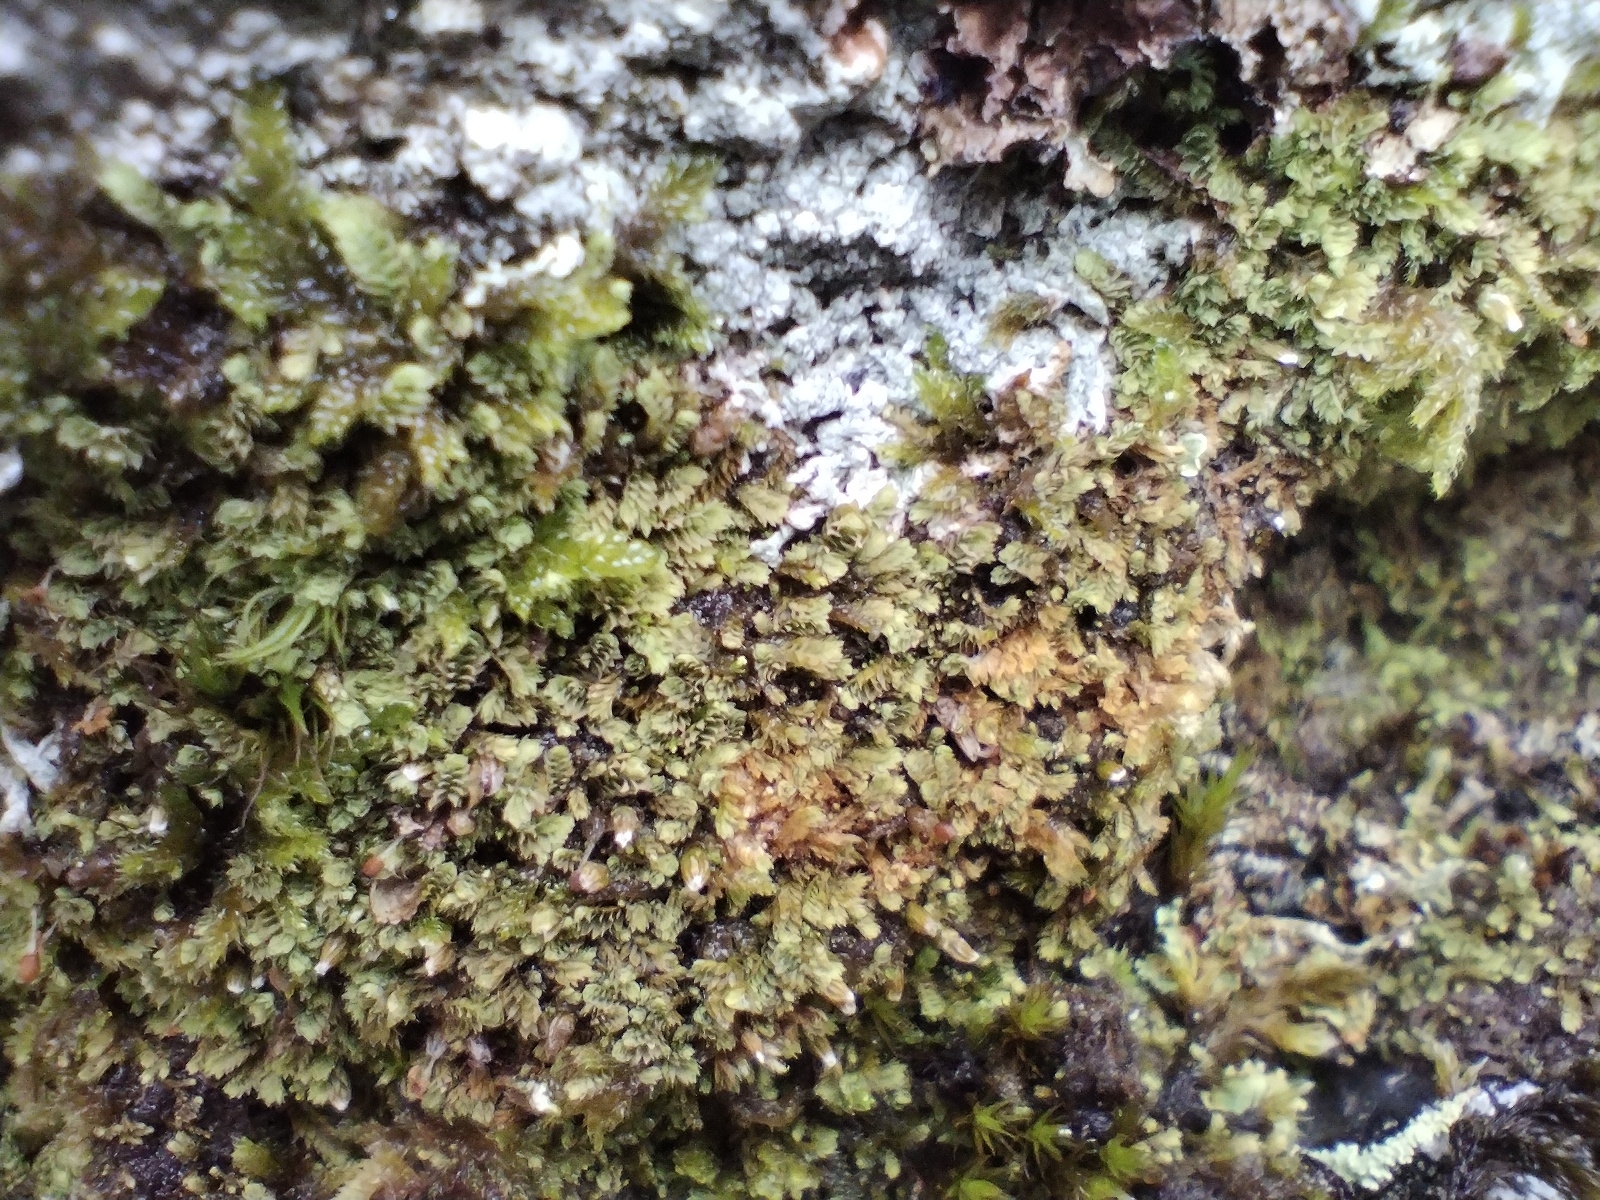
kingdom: Plantae
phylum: Marchantiophyta
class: Jungermanniopsida
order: Jungermanniales
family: Scapaniaceae
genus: Douinia
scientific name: Douinia ovata
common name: Waxy earwort
